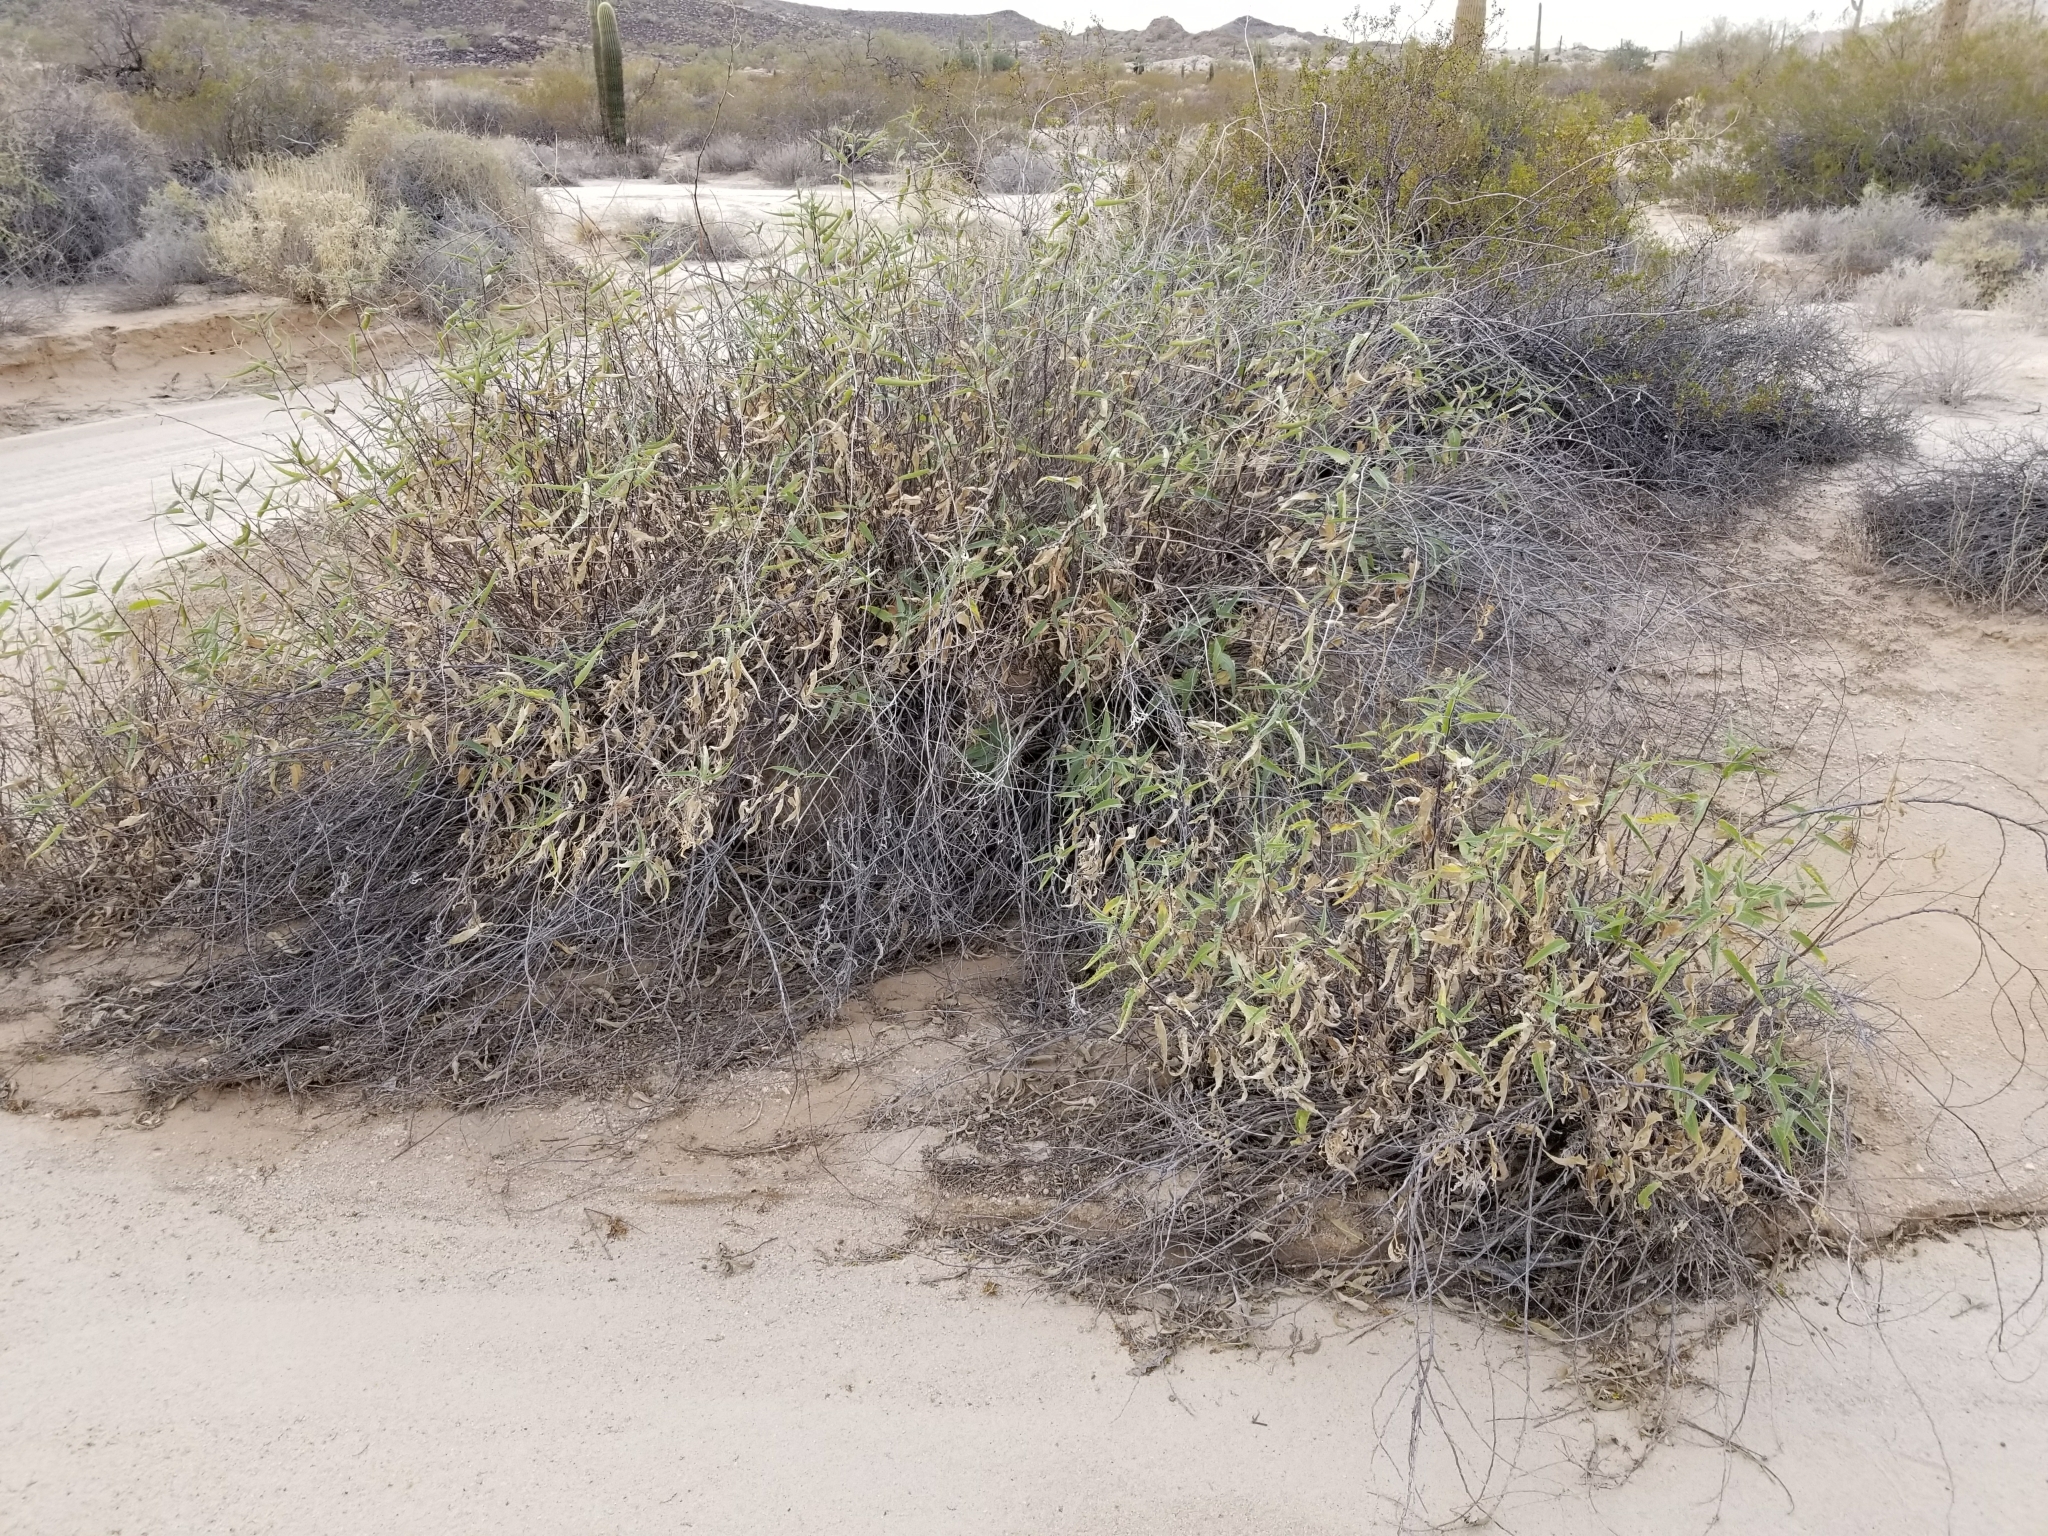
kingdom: Plantae
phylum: Tracheophyta
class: Magnoliopsida
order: Asterales
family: Asteraceae
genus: Ambrosia
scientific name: Ambrosia ambrosioides
